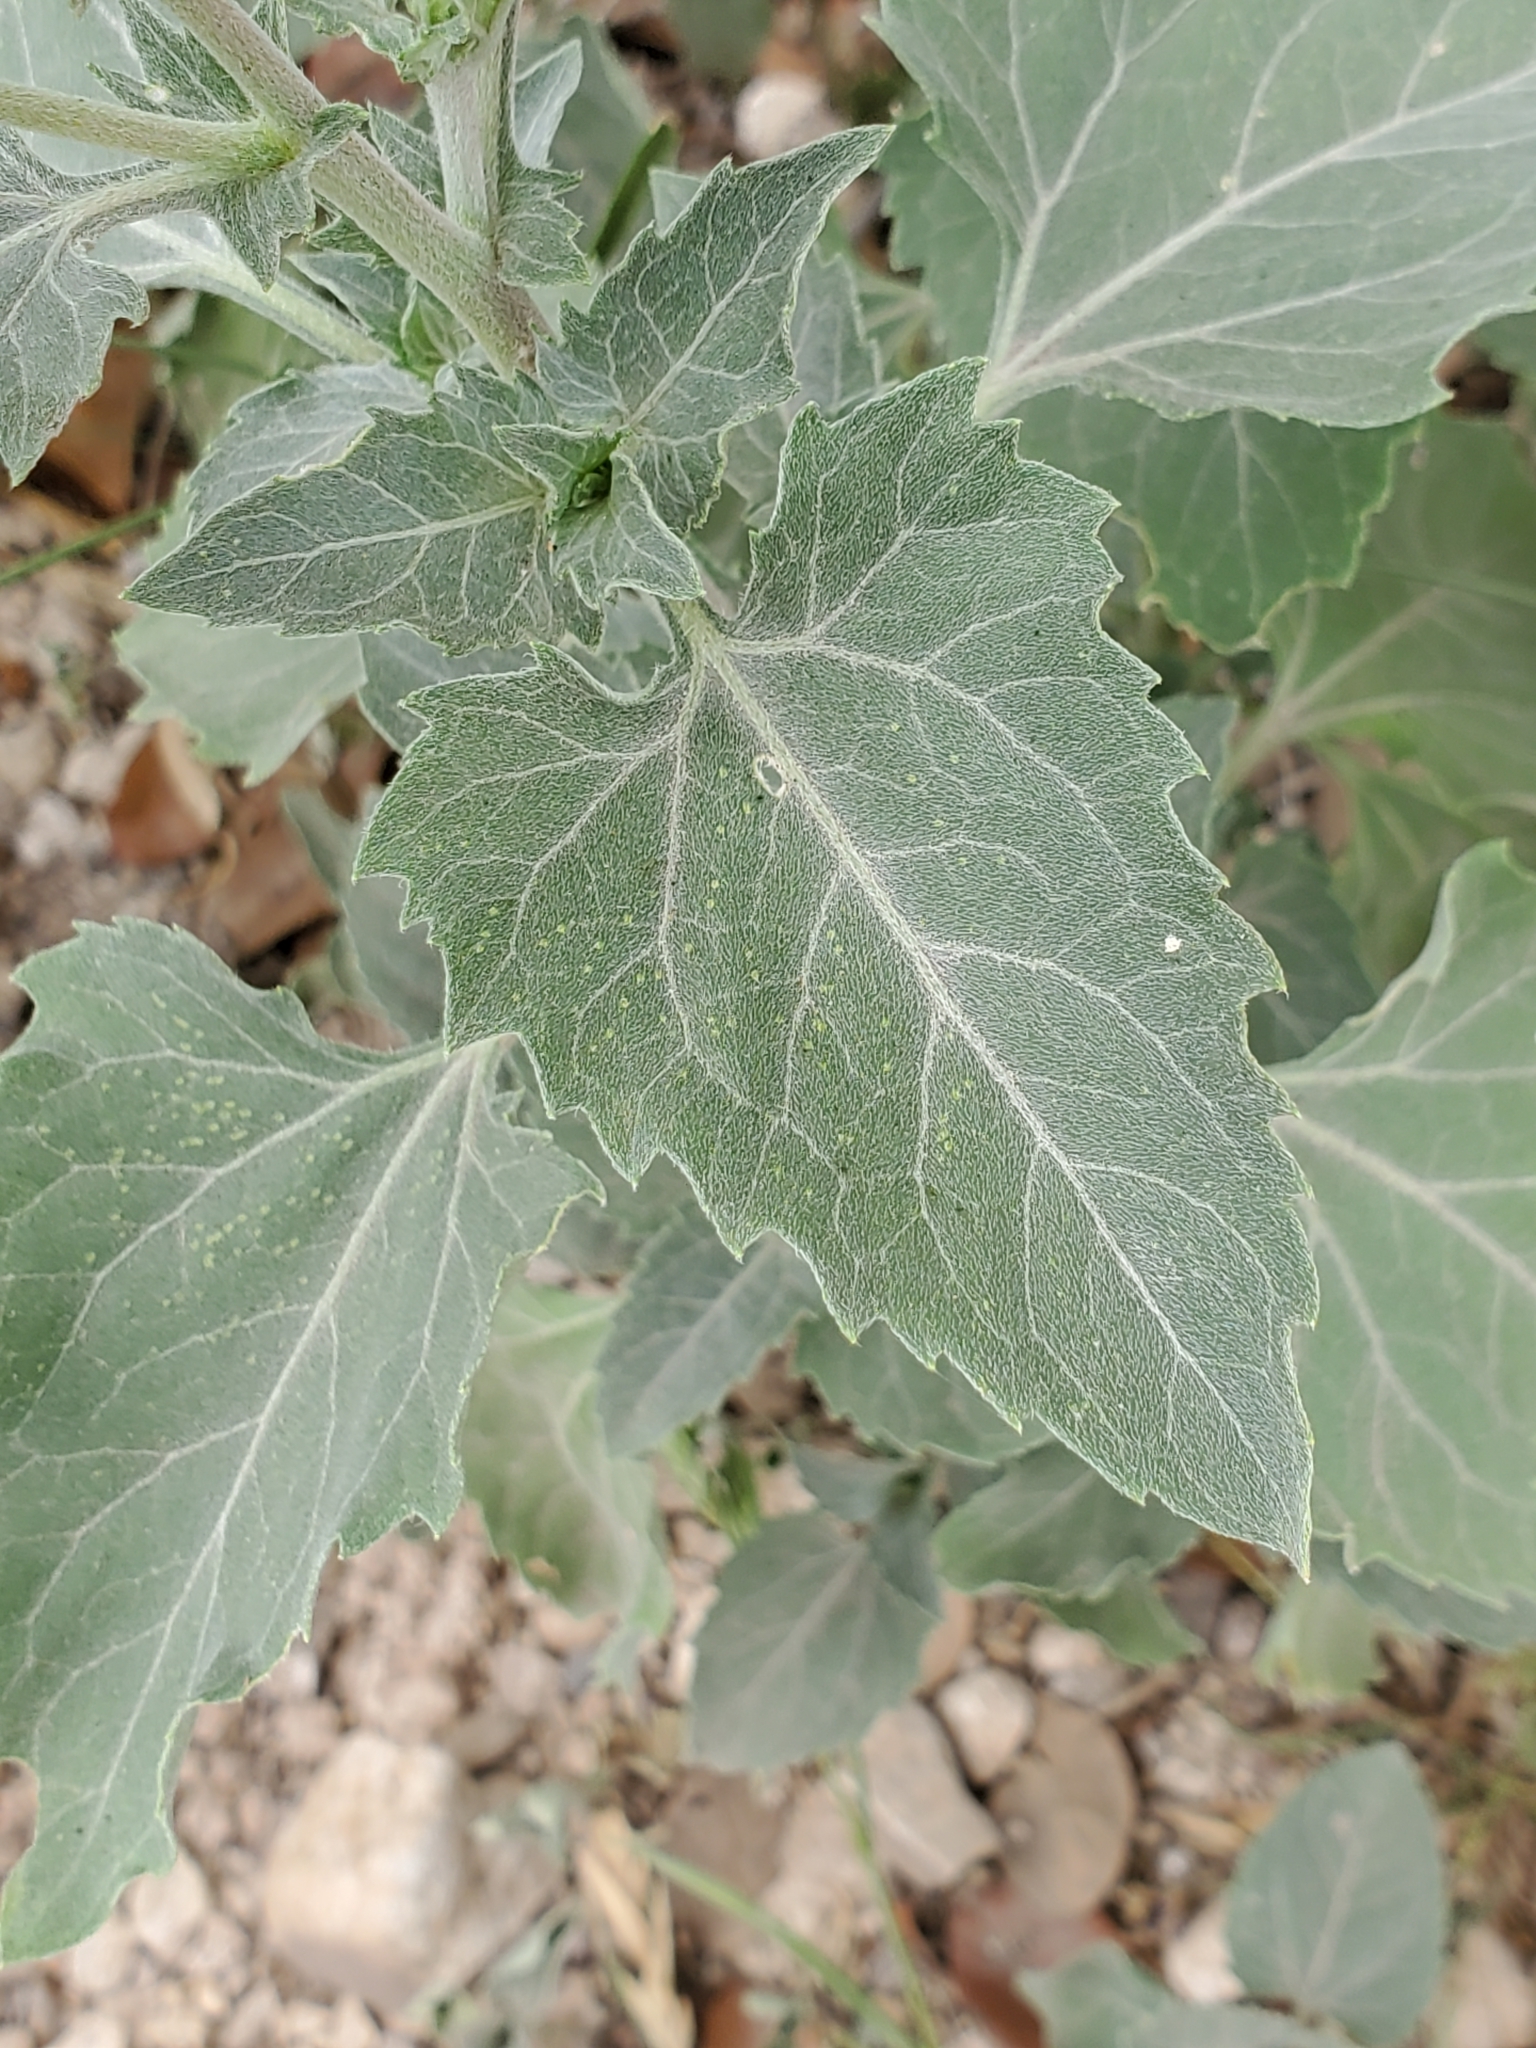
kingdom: Plantae
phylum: Tracheophyta
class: Magnoliopsida
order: Asterales
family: Asteraceae
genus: Verbesina
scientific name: Verbesina encelioides
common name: Golden crownbeard
